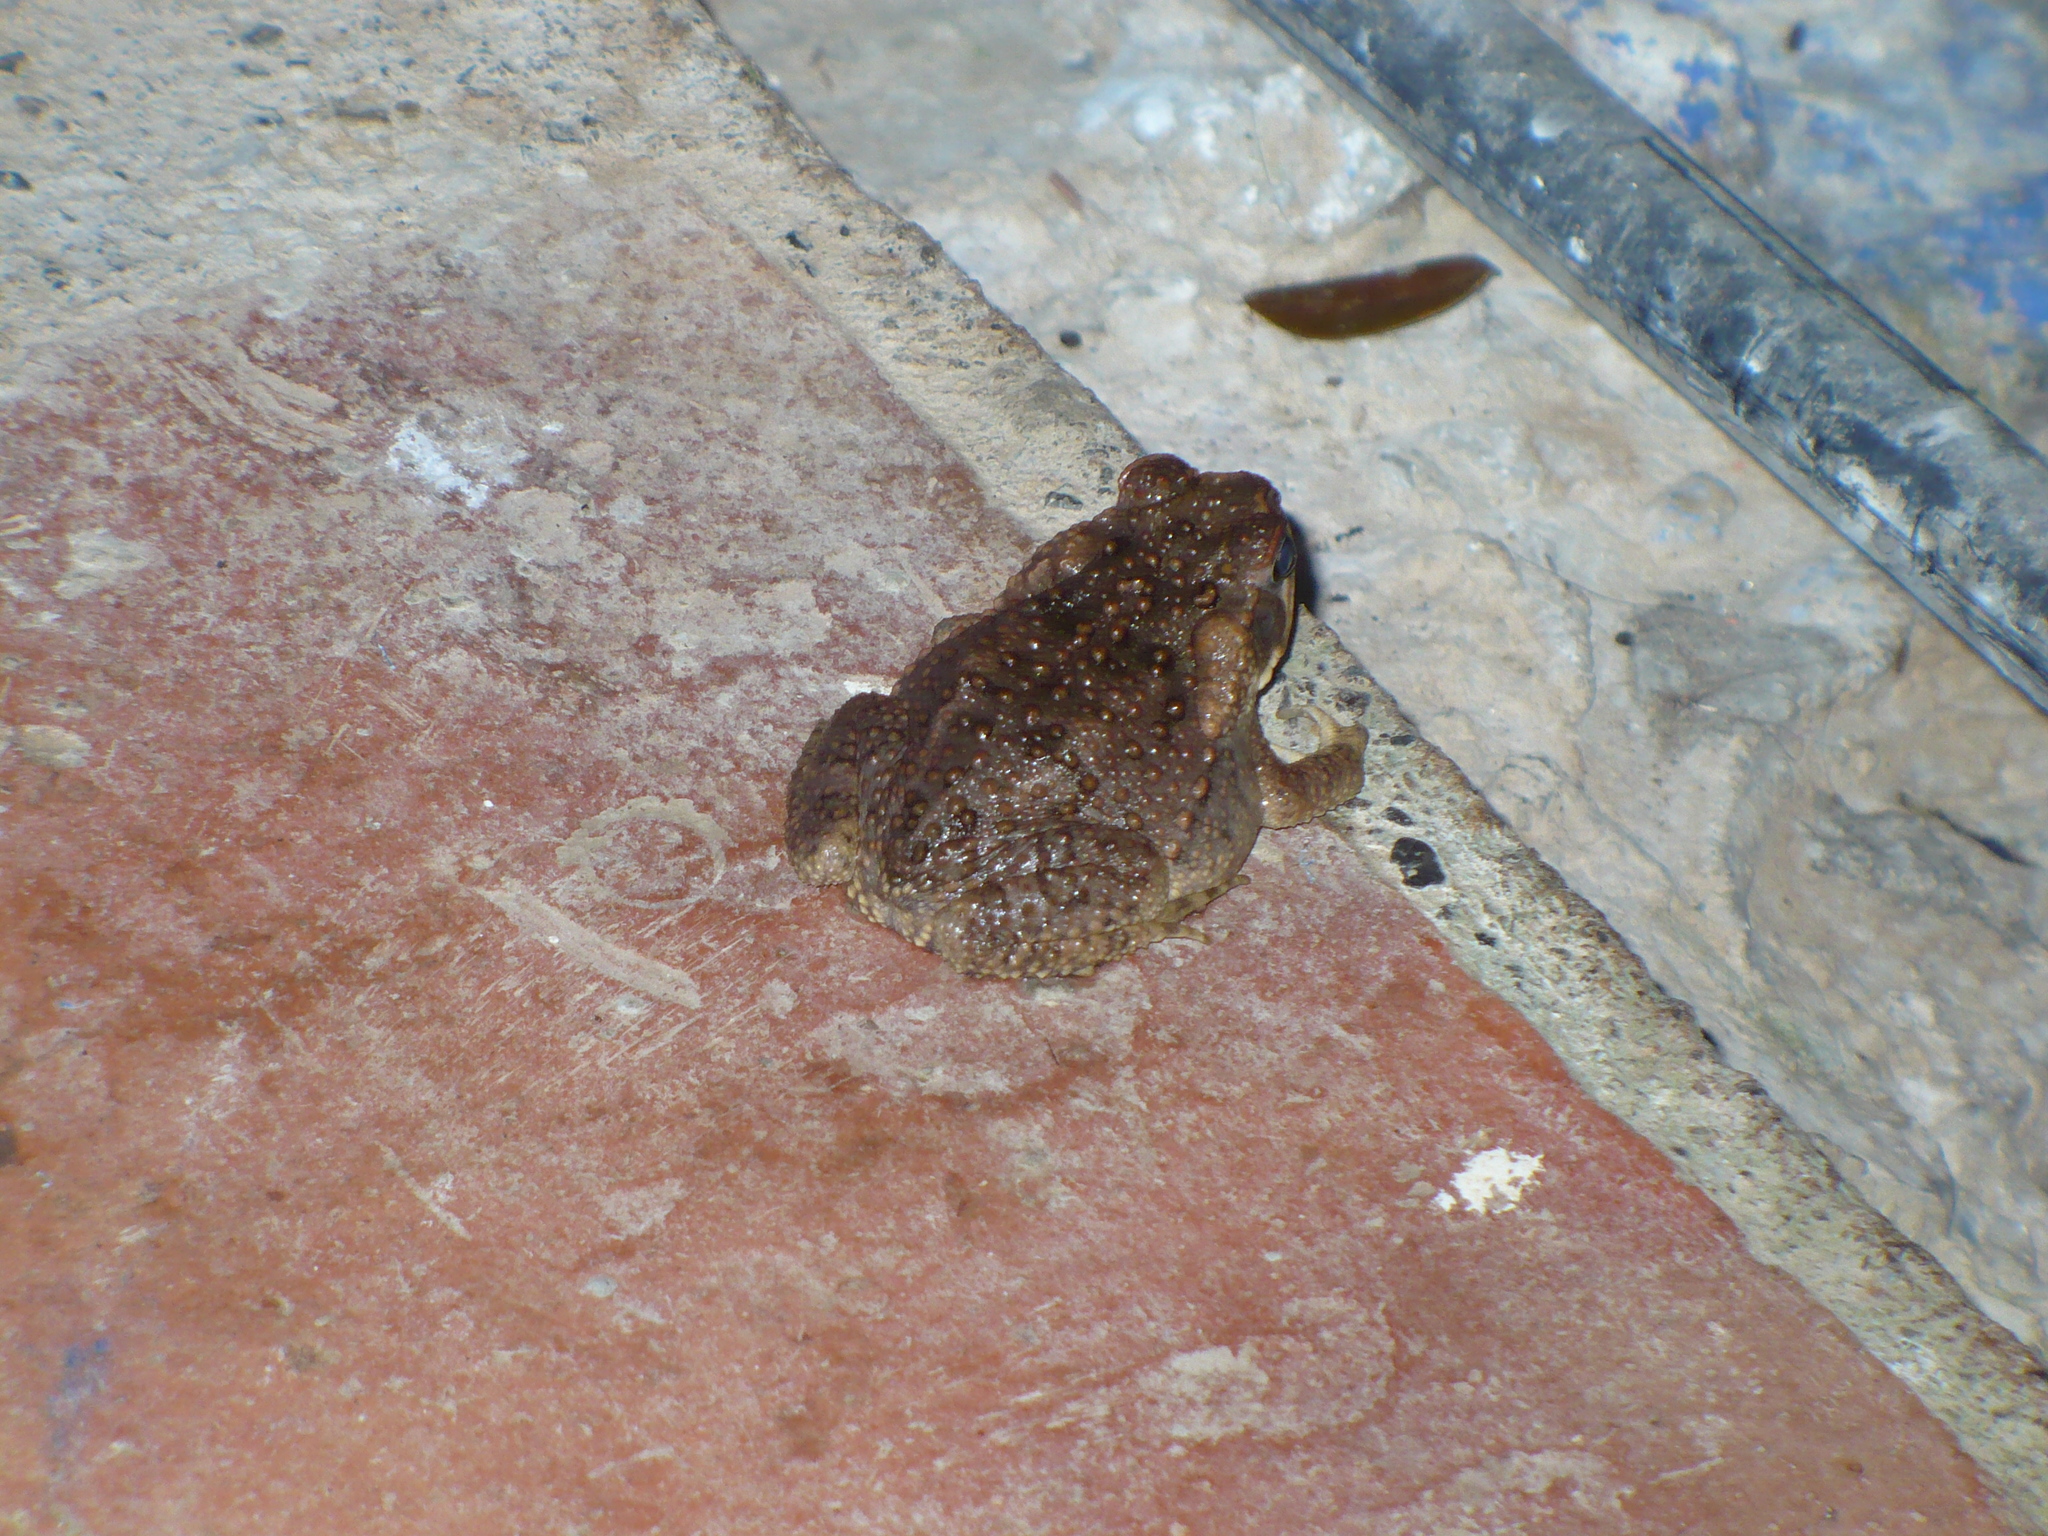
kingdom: Animalia
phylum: Chordata
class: Amphibia
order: Anura
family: Bufonidae
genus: Rhinella
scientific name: Rhinella horribilis
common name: Mesoamerican cane toad
